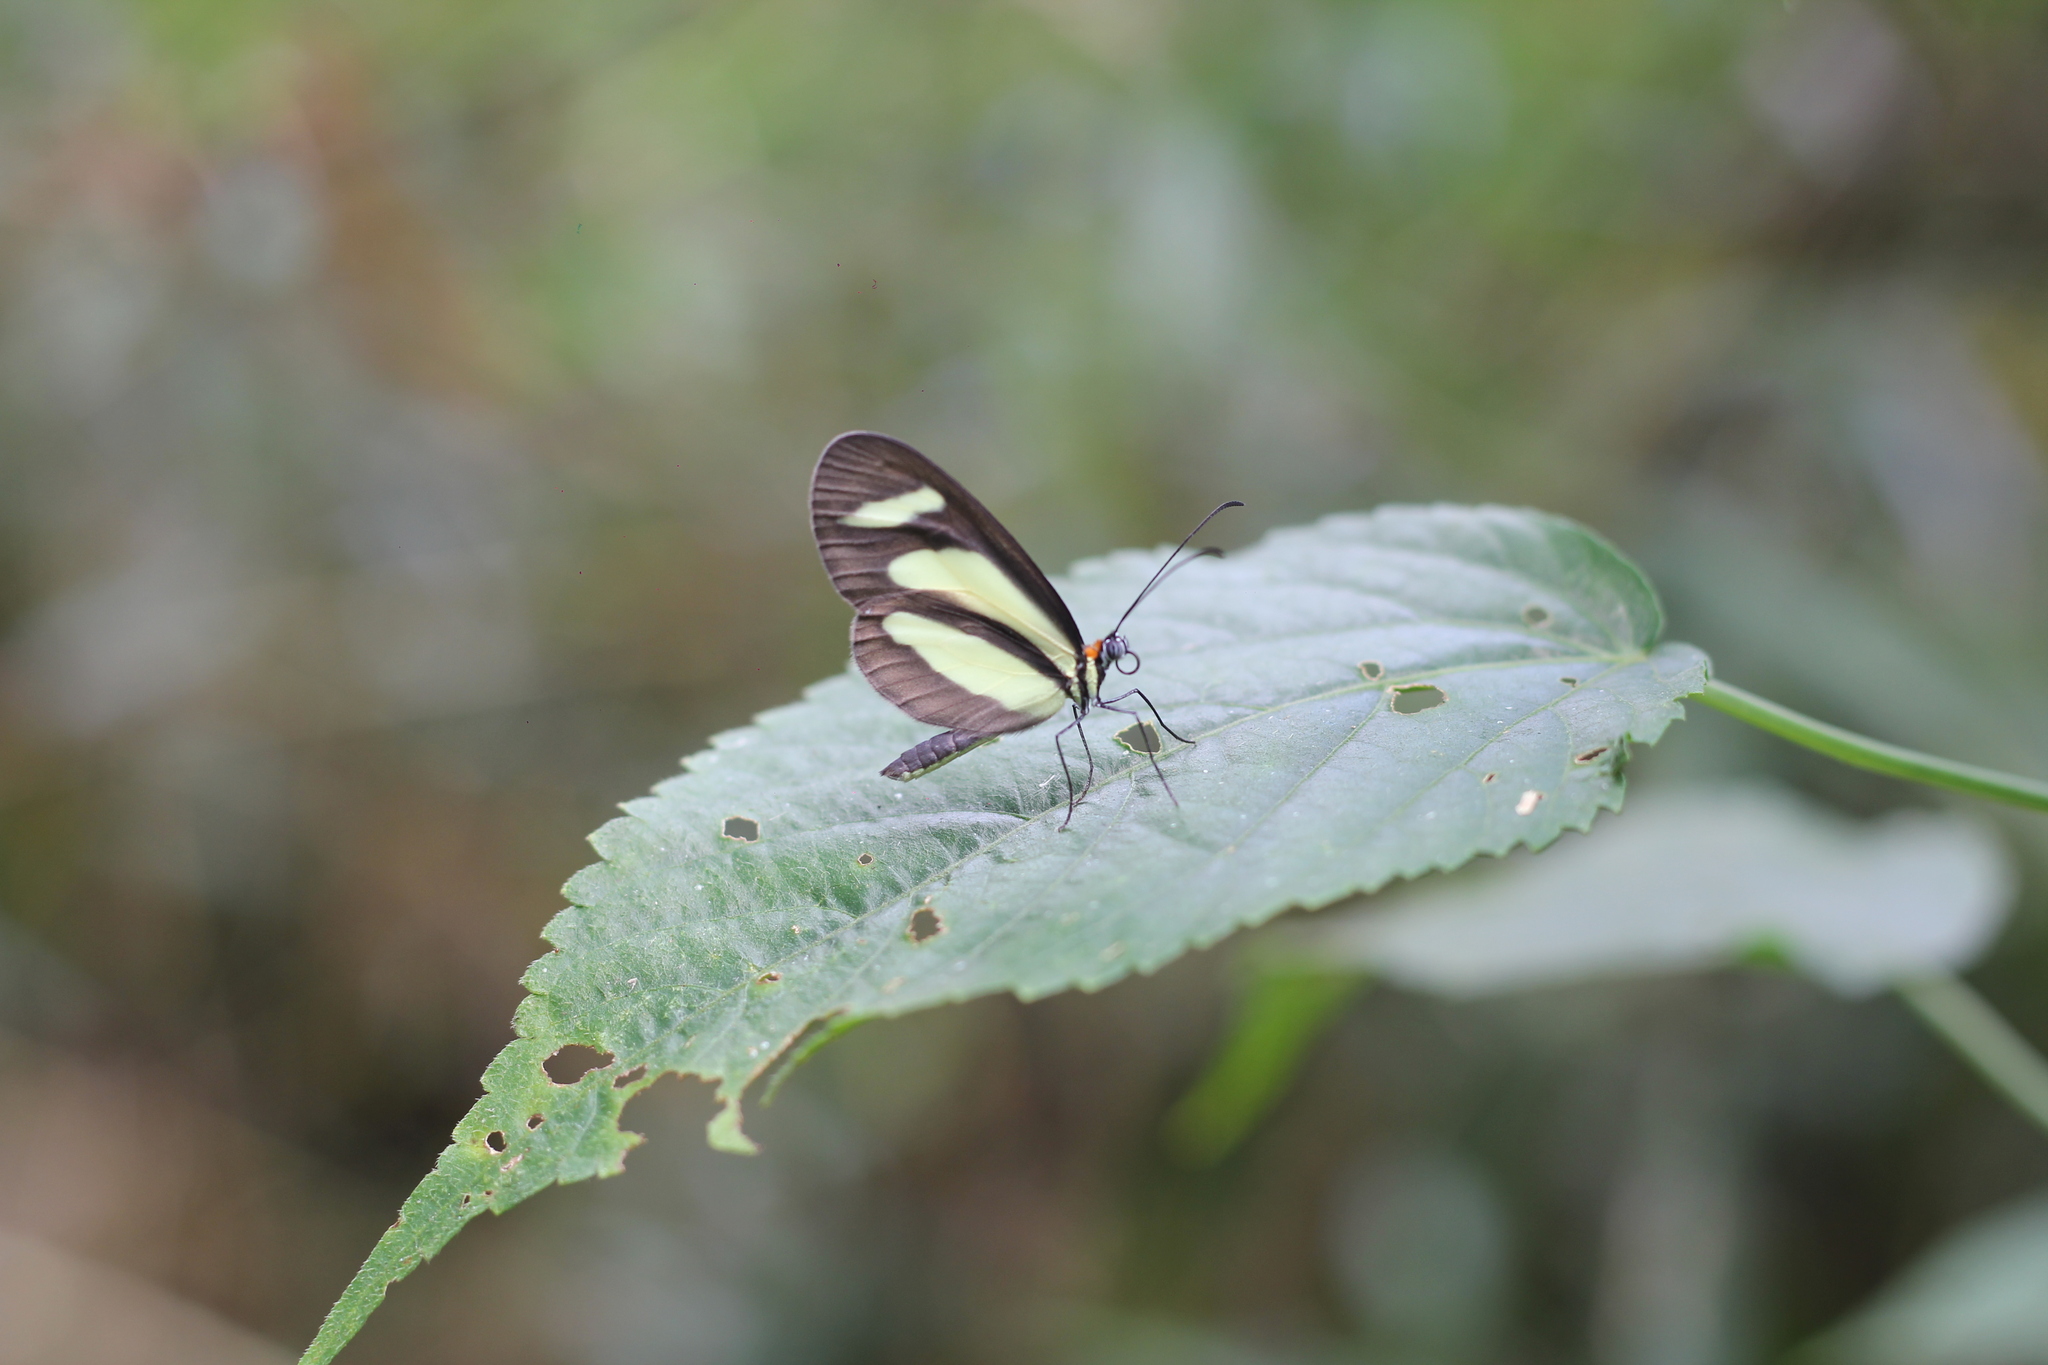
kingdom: Animalia
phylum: Arthropoda
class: Insecta
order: Lepidoptera
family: Nymphalidae
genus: Aeria
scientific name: Aeria olena
